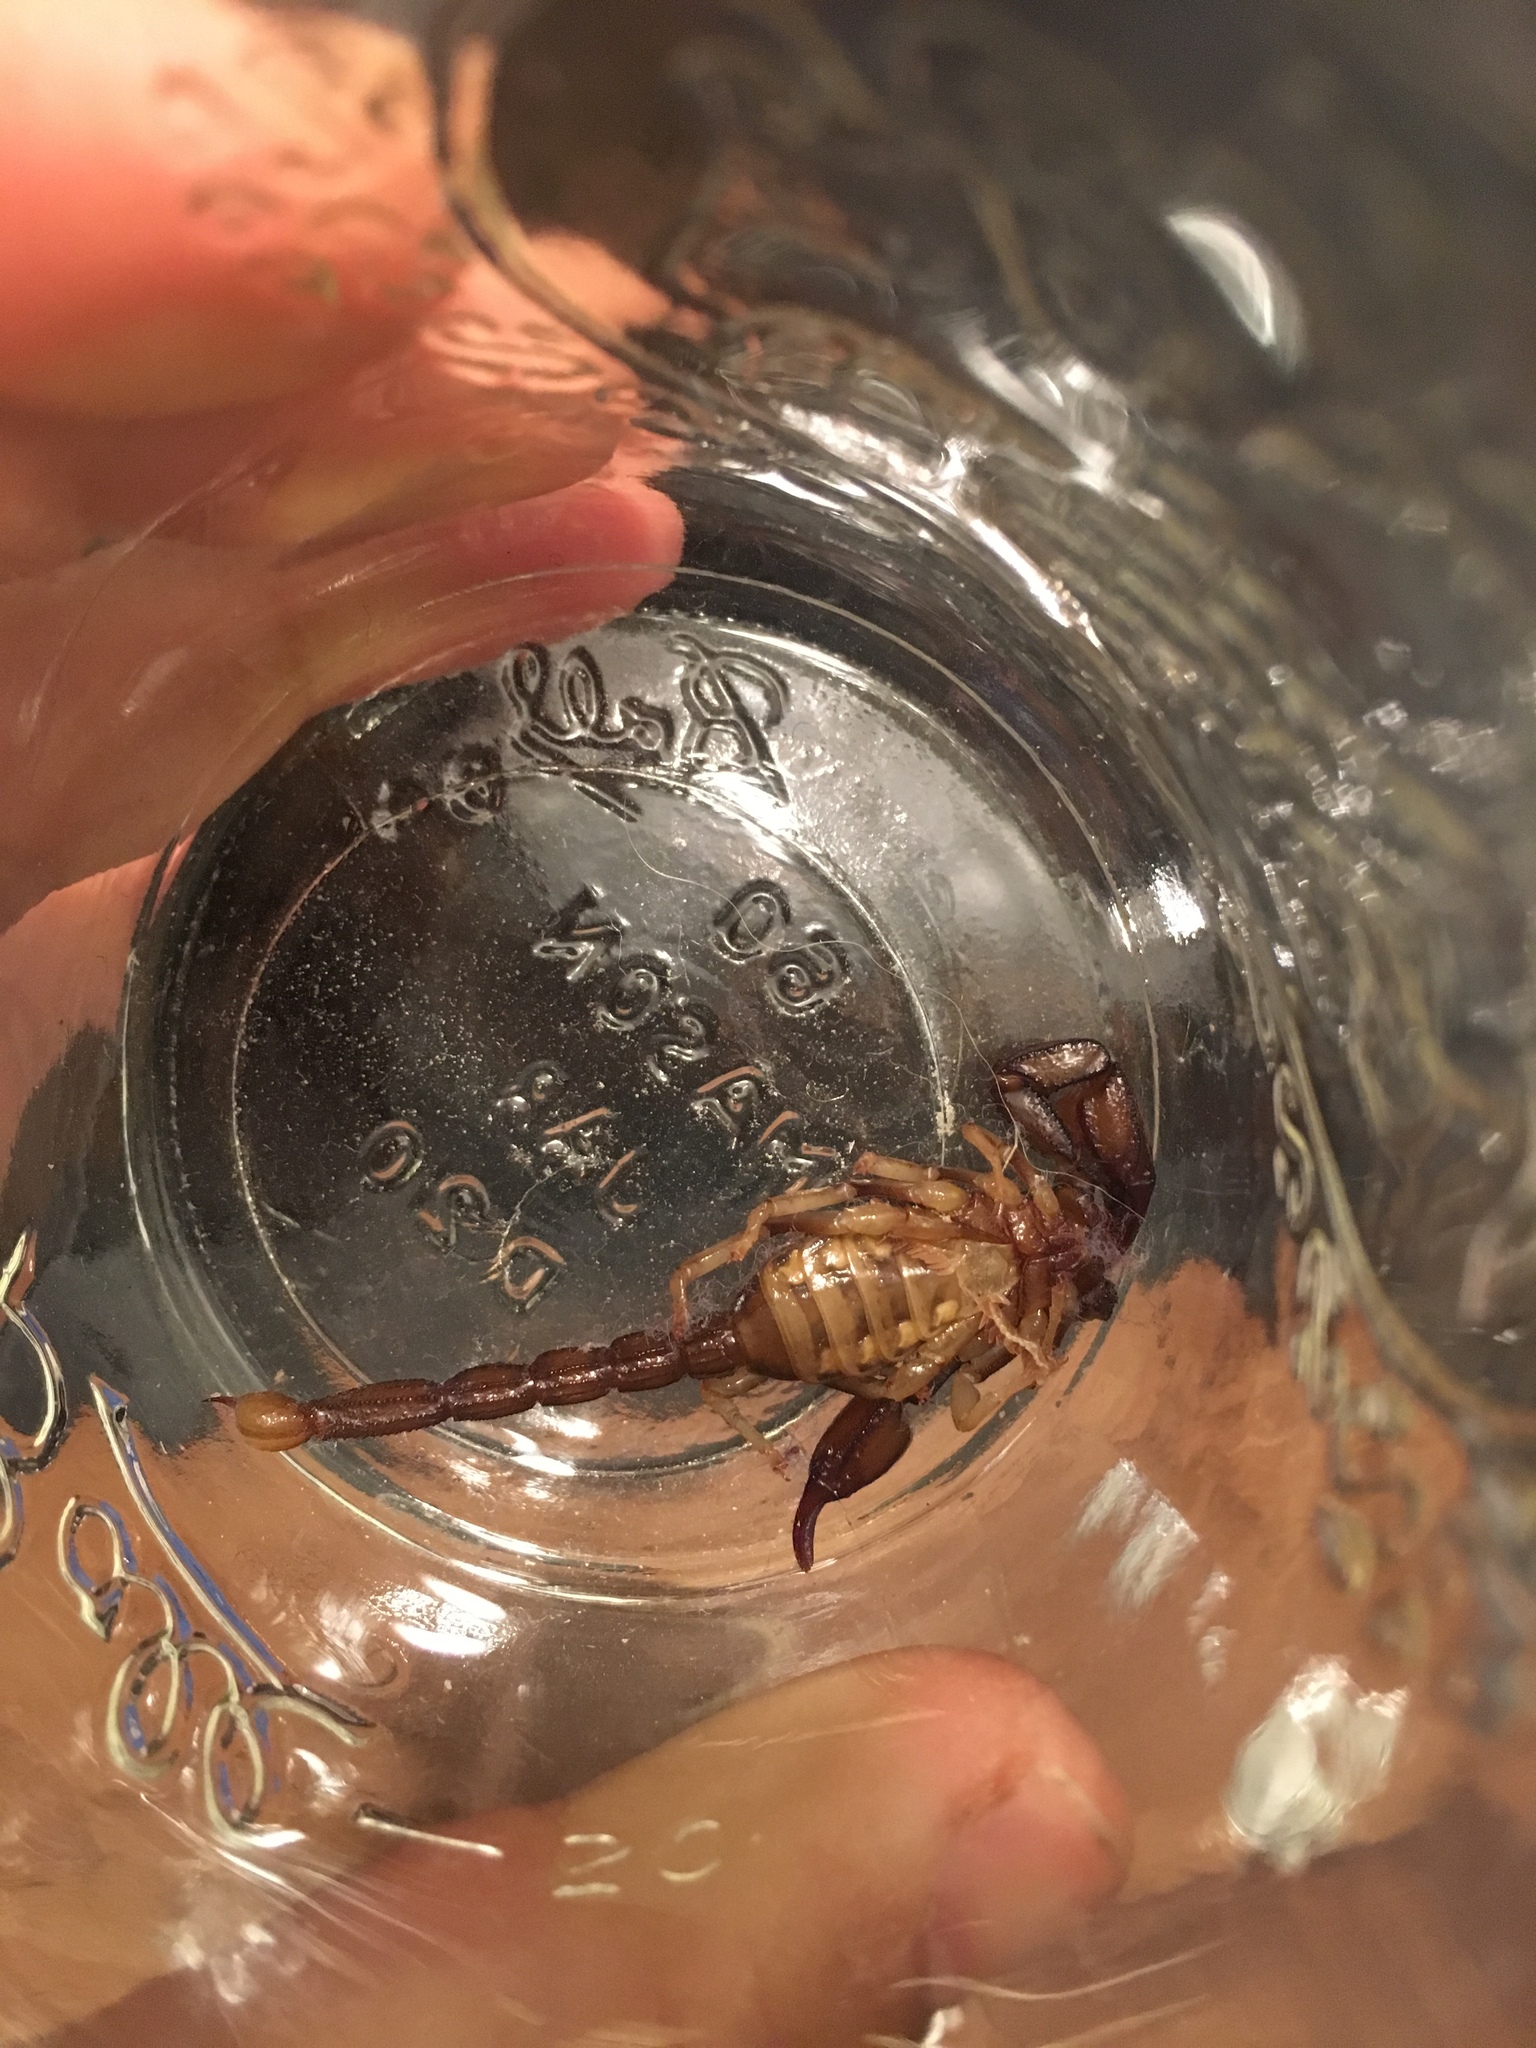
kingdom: Animalia
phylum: Arthropoda
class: Arachnida
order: Scorpiones
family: Chactidae
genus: Uroctonus
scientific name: Uroctonus mordax
